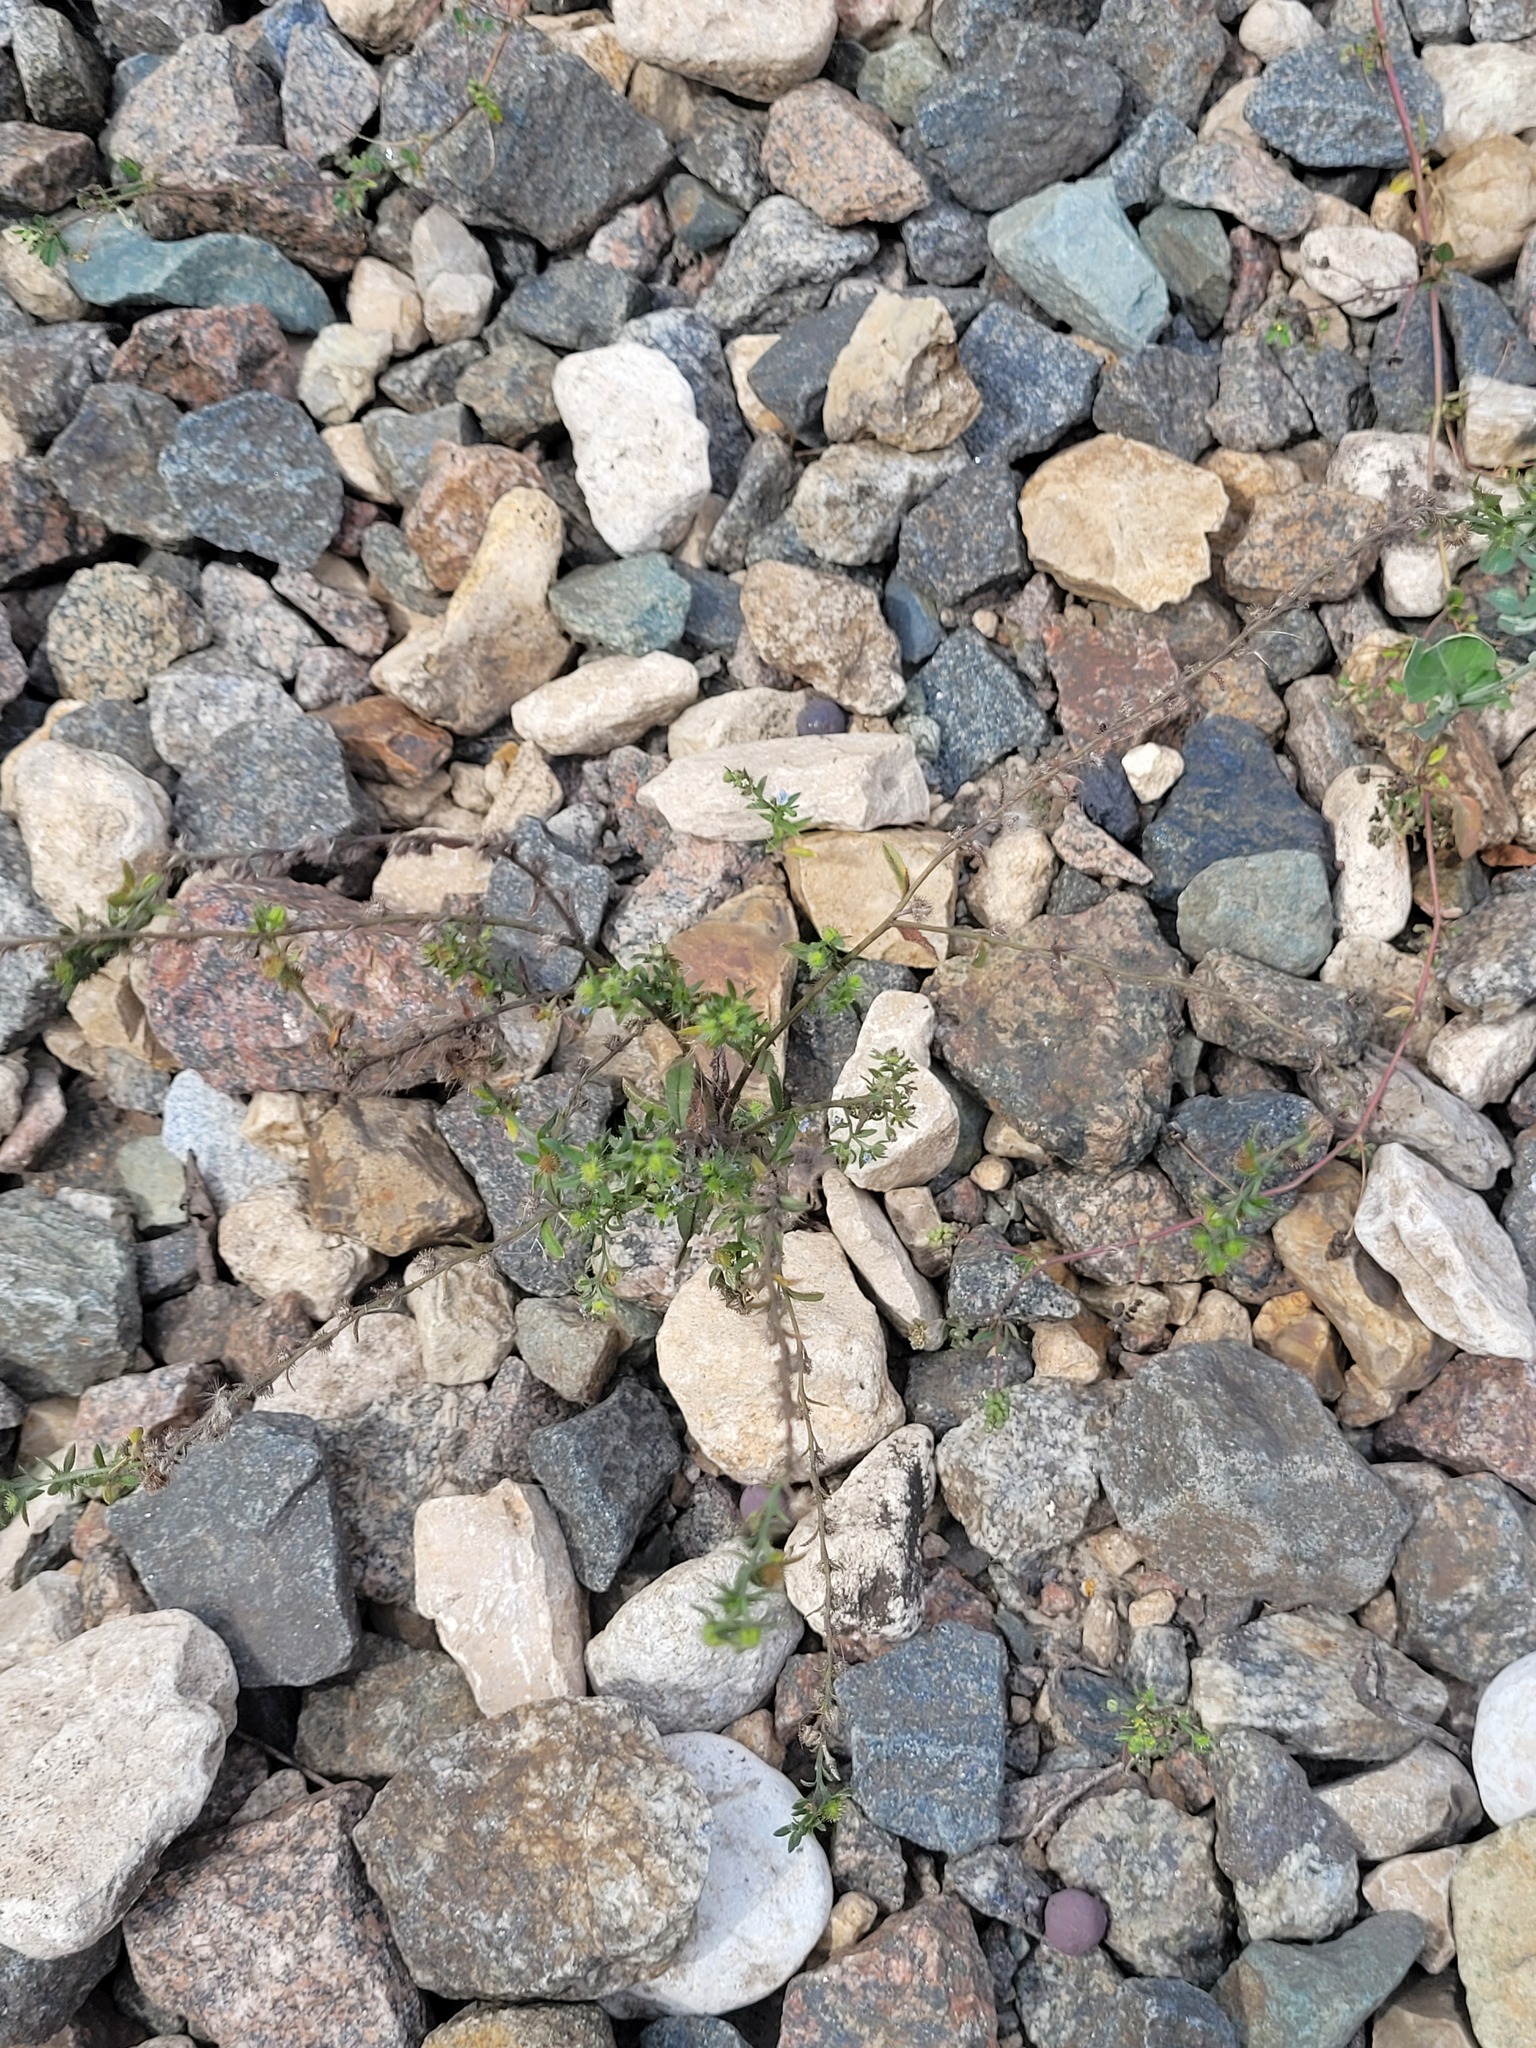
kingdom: Plantae
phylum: Tracheophyta
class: Magnoliopsida
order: Boraginales
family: Boraginaceae
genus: Lappula
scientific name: Lappula squarrosa
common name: European stickseed
